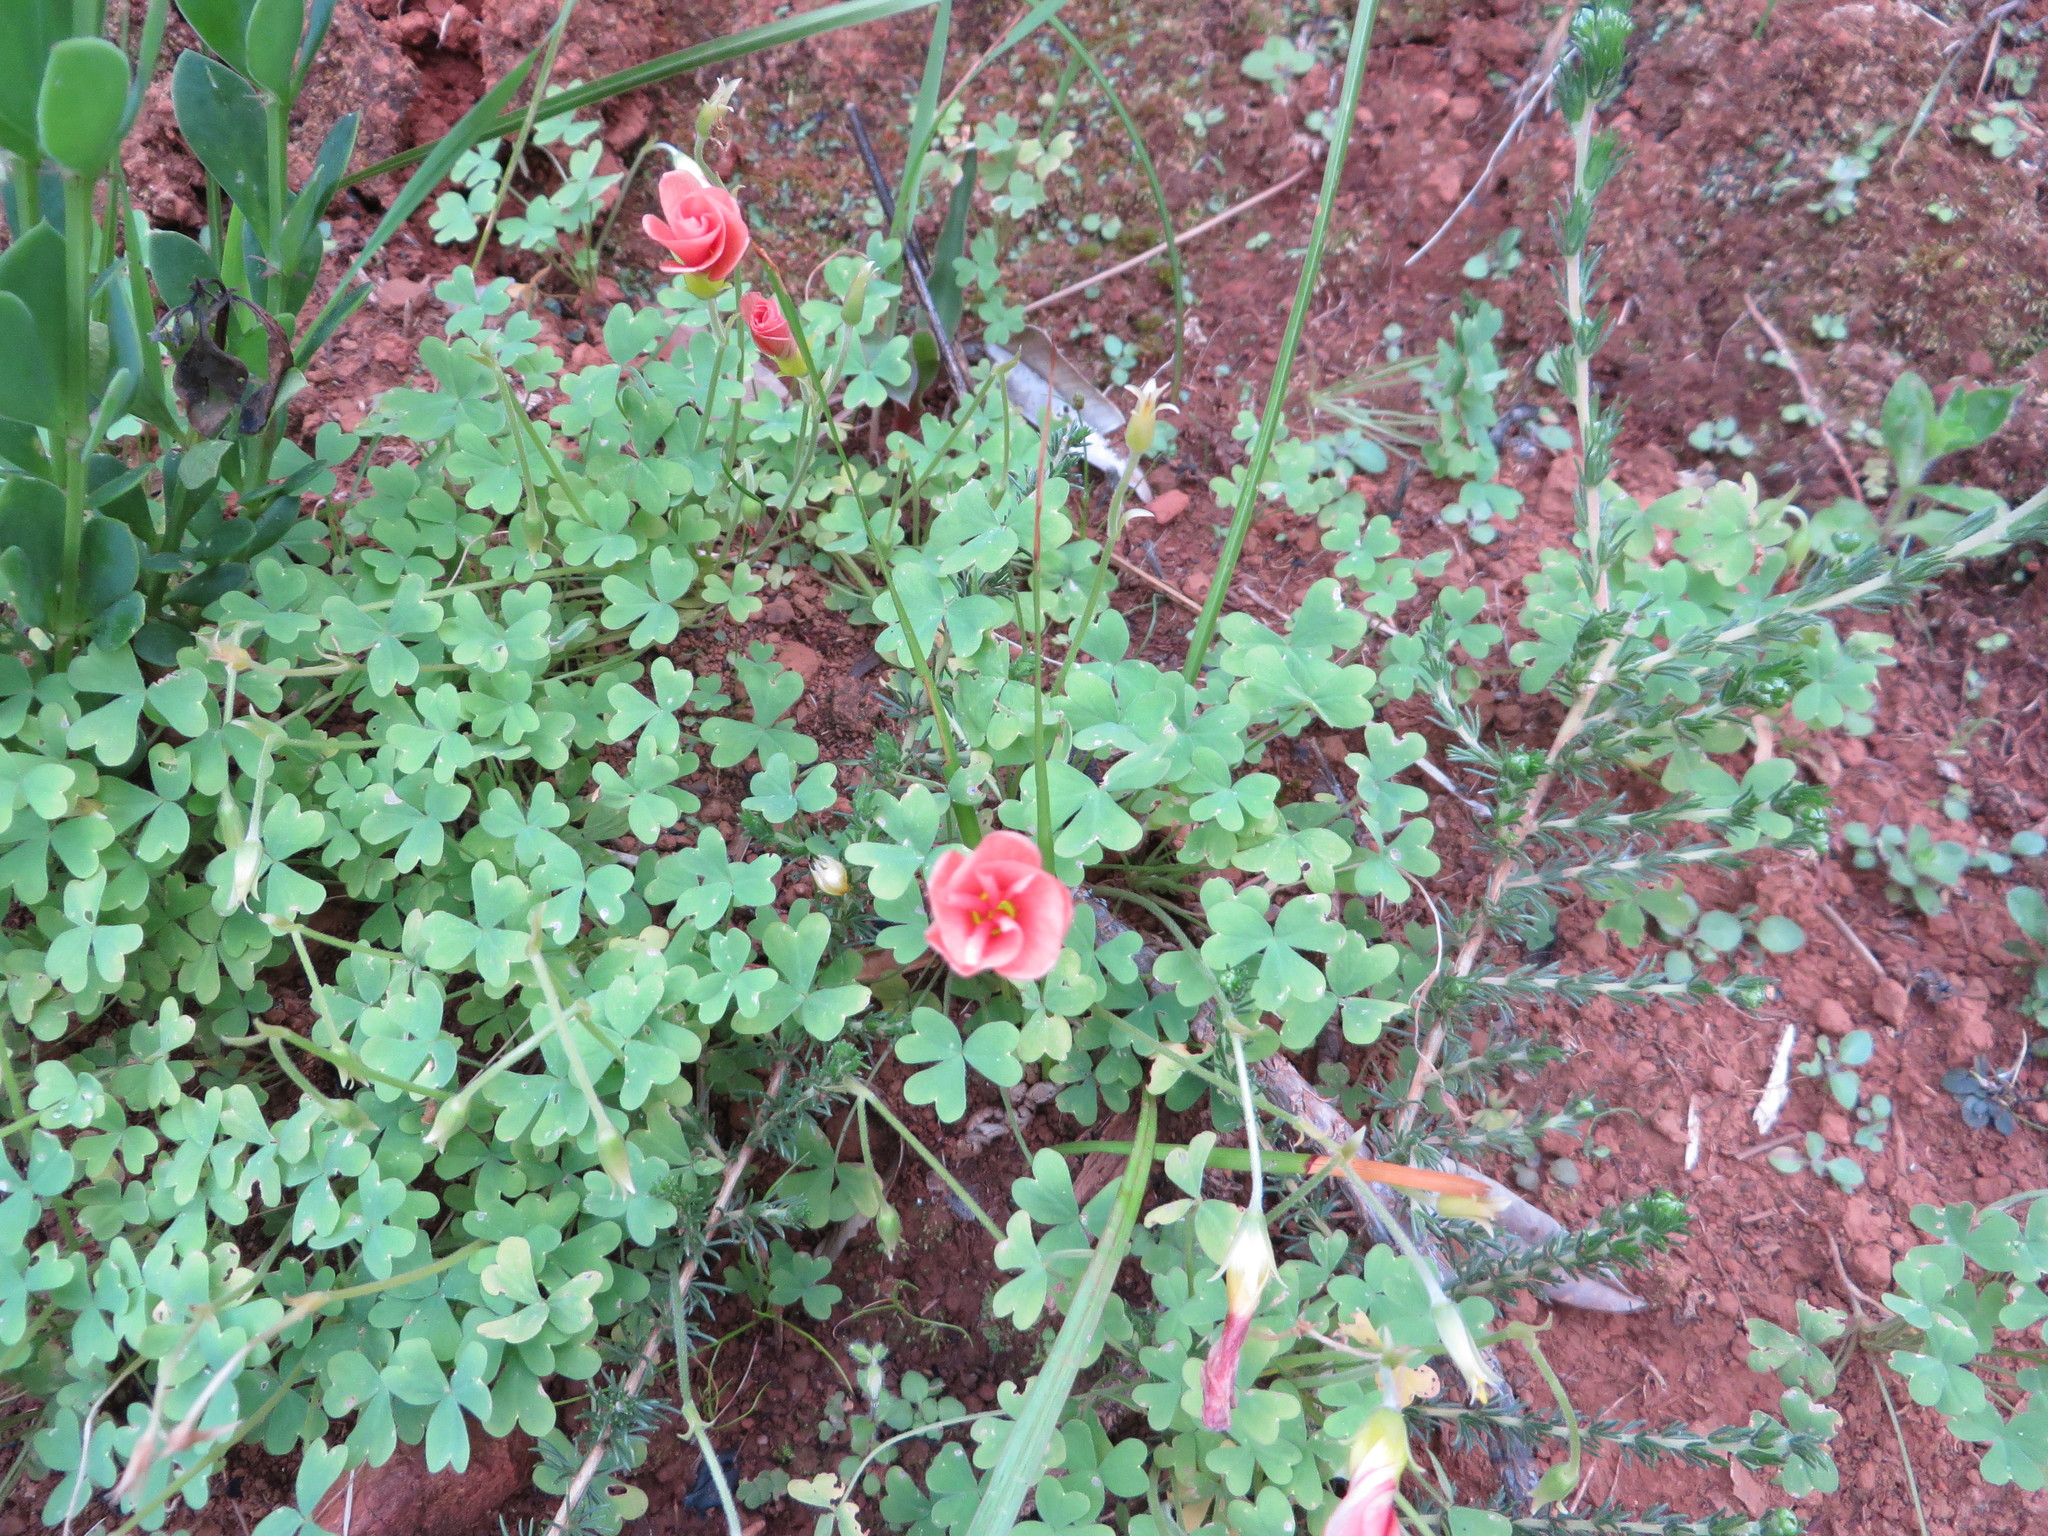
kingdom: Plantae
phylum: Tracheophyta
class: Magnoliopsida
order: Oxalidales
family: Oxalidaceae
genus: Oxalis
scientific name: Oxalis obtusa
